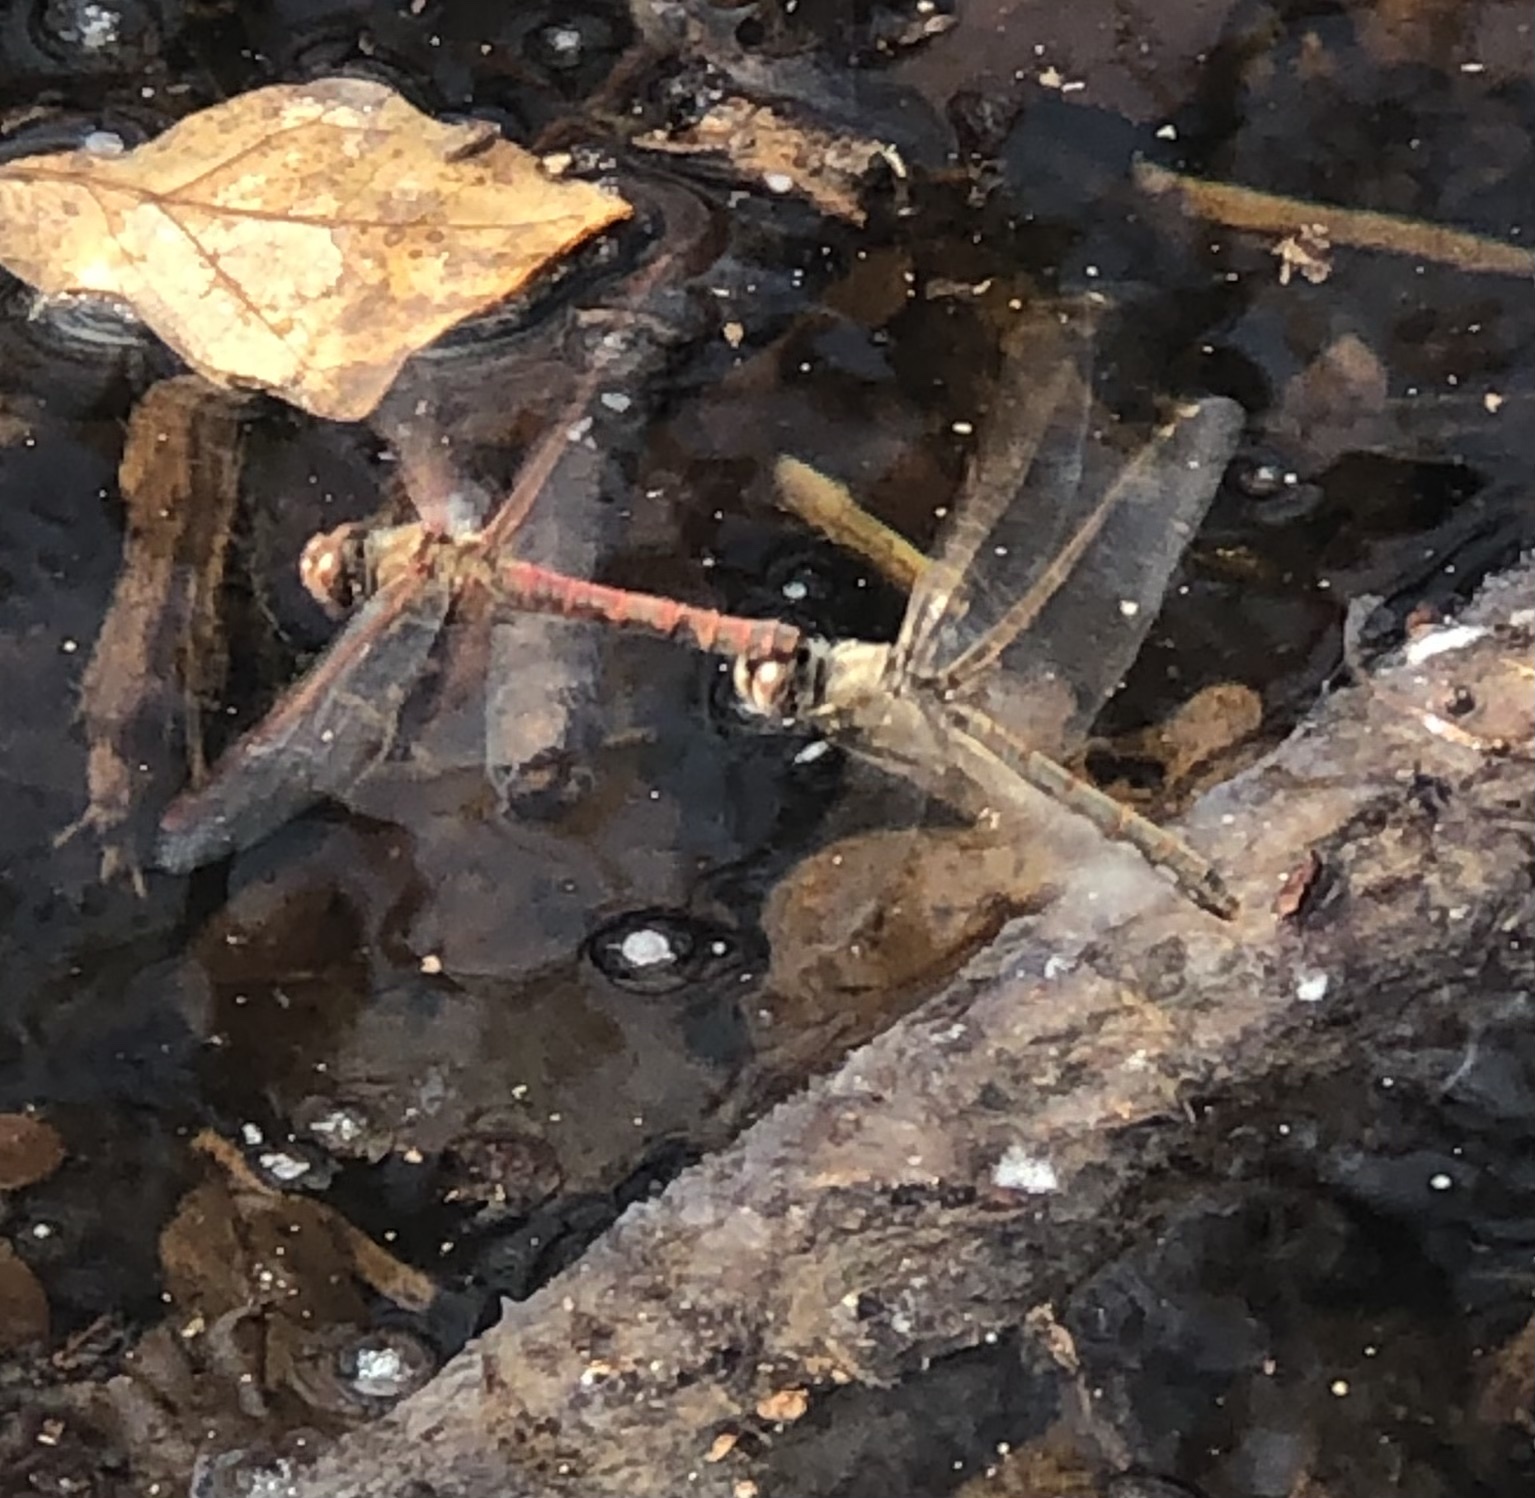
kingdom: Animalia
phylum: Arthropoda
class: Insecta
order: Odonata
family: Libellulidae
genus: Sympetrum
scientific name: Sympetrum corruptum
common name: Variegated meadowhawk
